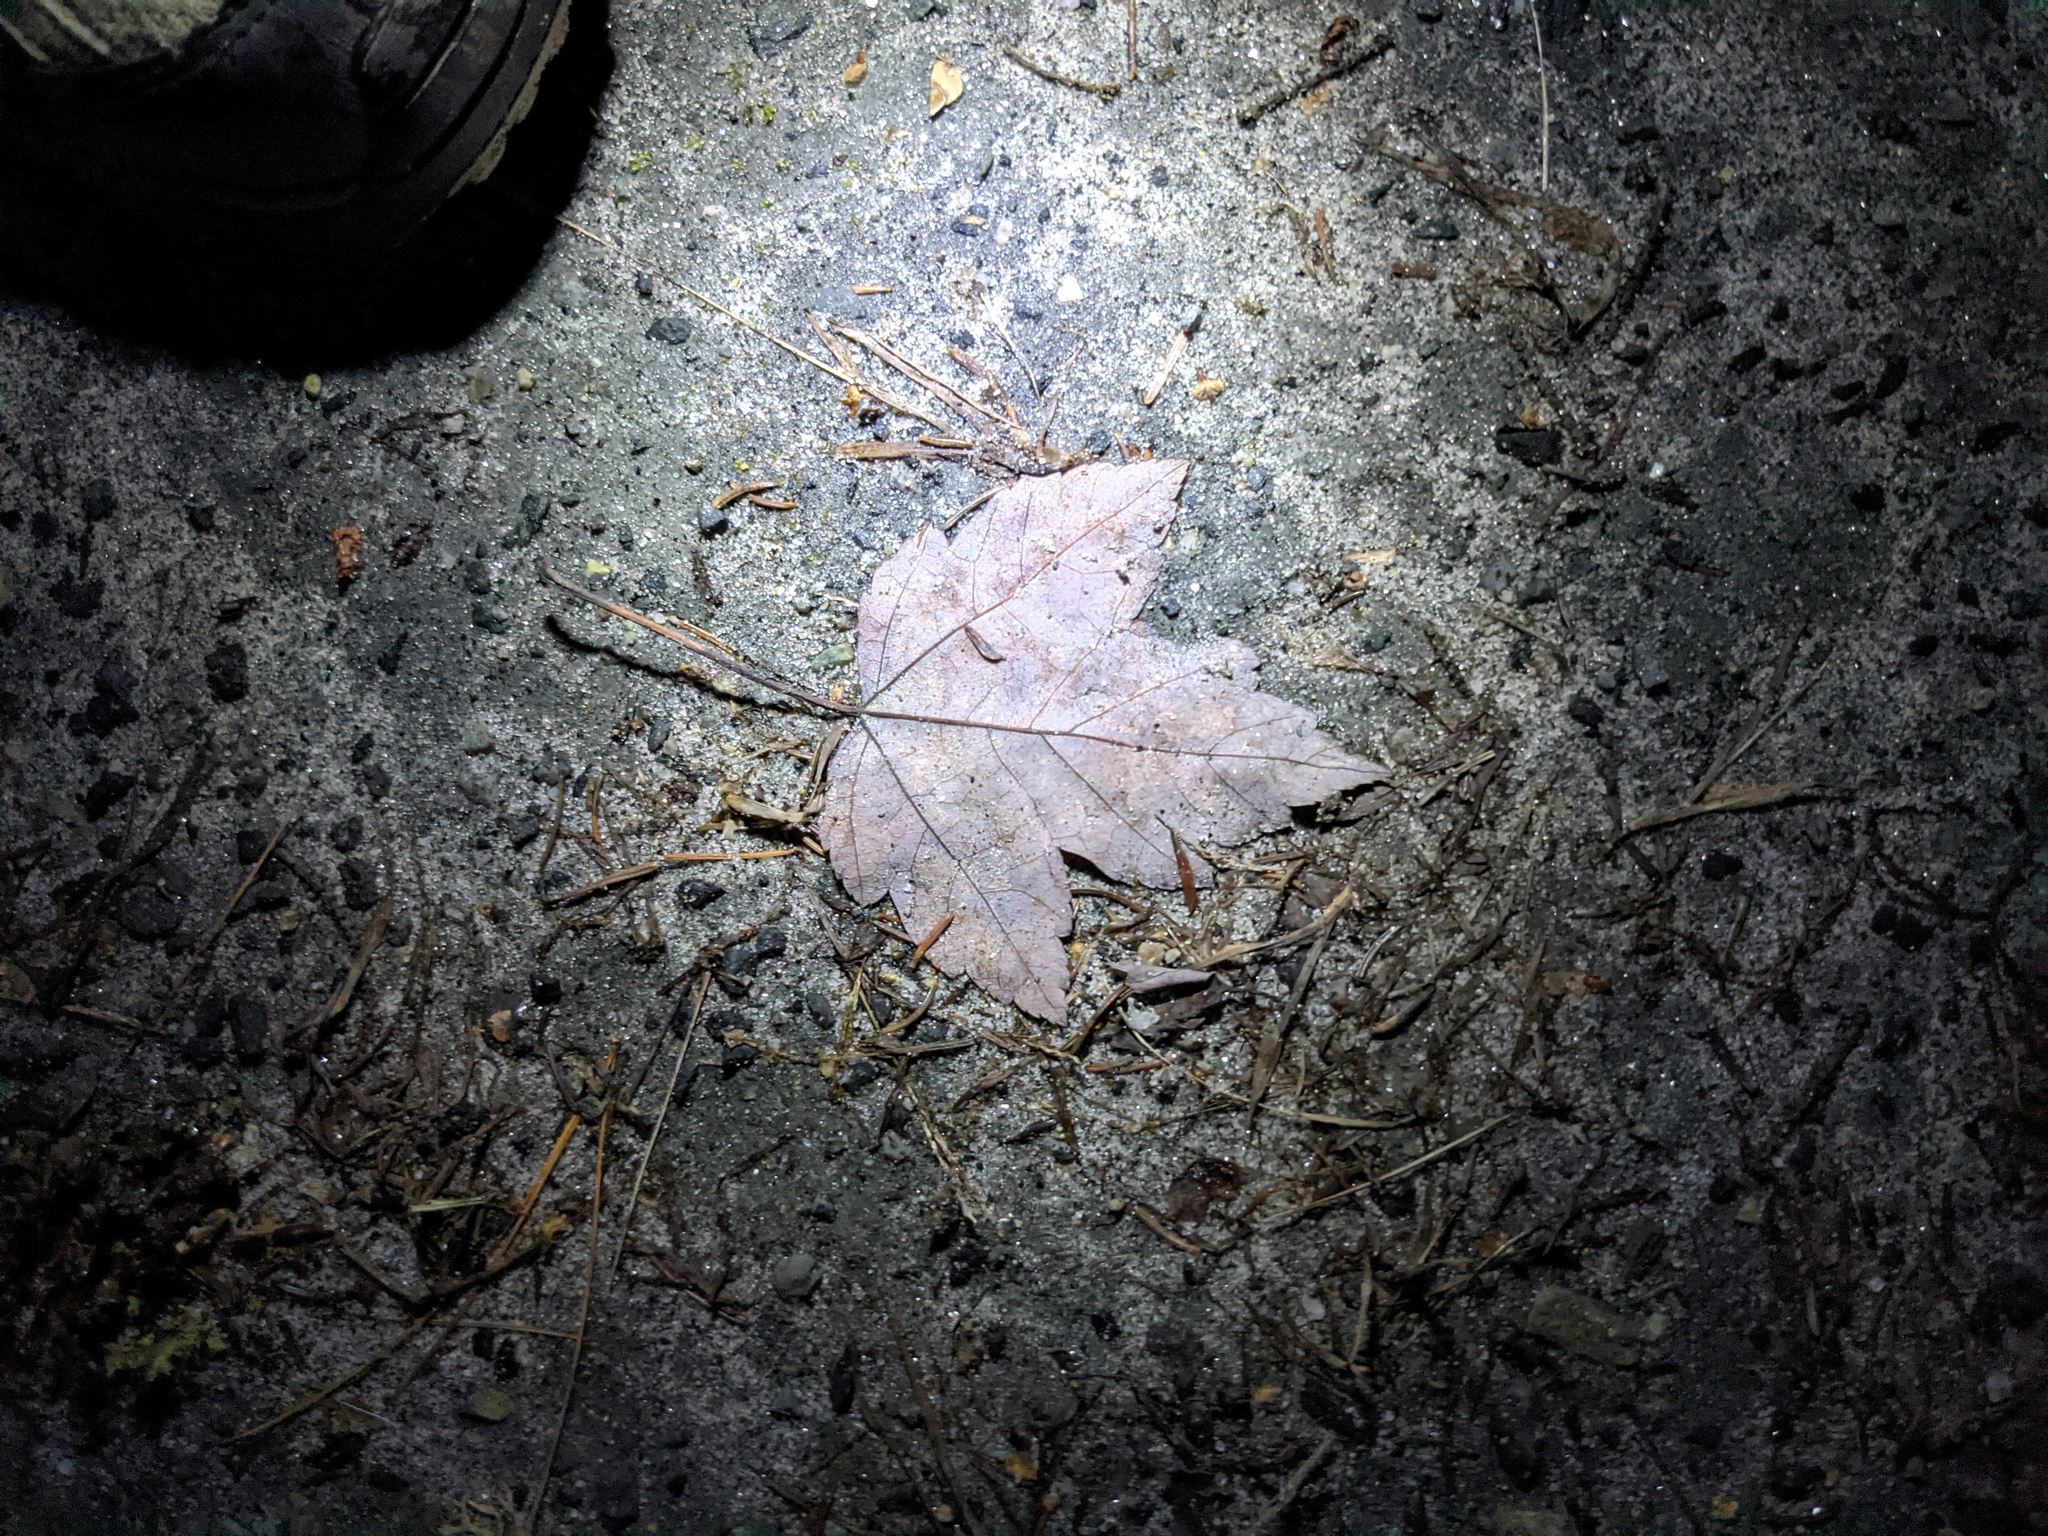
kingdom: Plantae
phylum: Tracheophyta
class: Magnoliopsida
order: Sapindales
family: Sapindaceae
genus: Acer
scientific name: Acer rubrum
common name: Red maple
